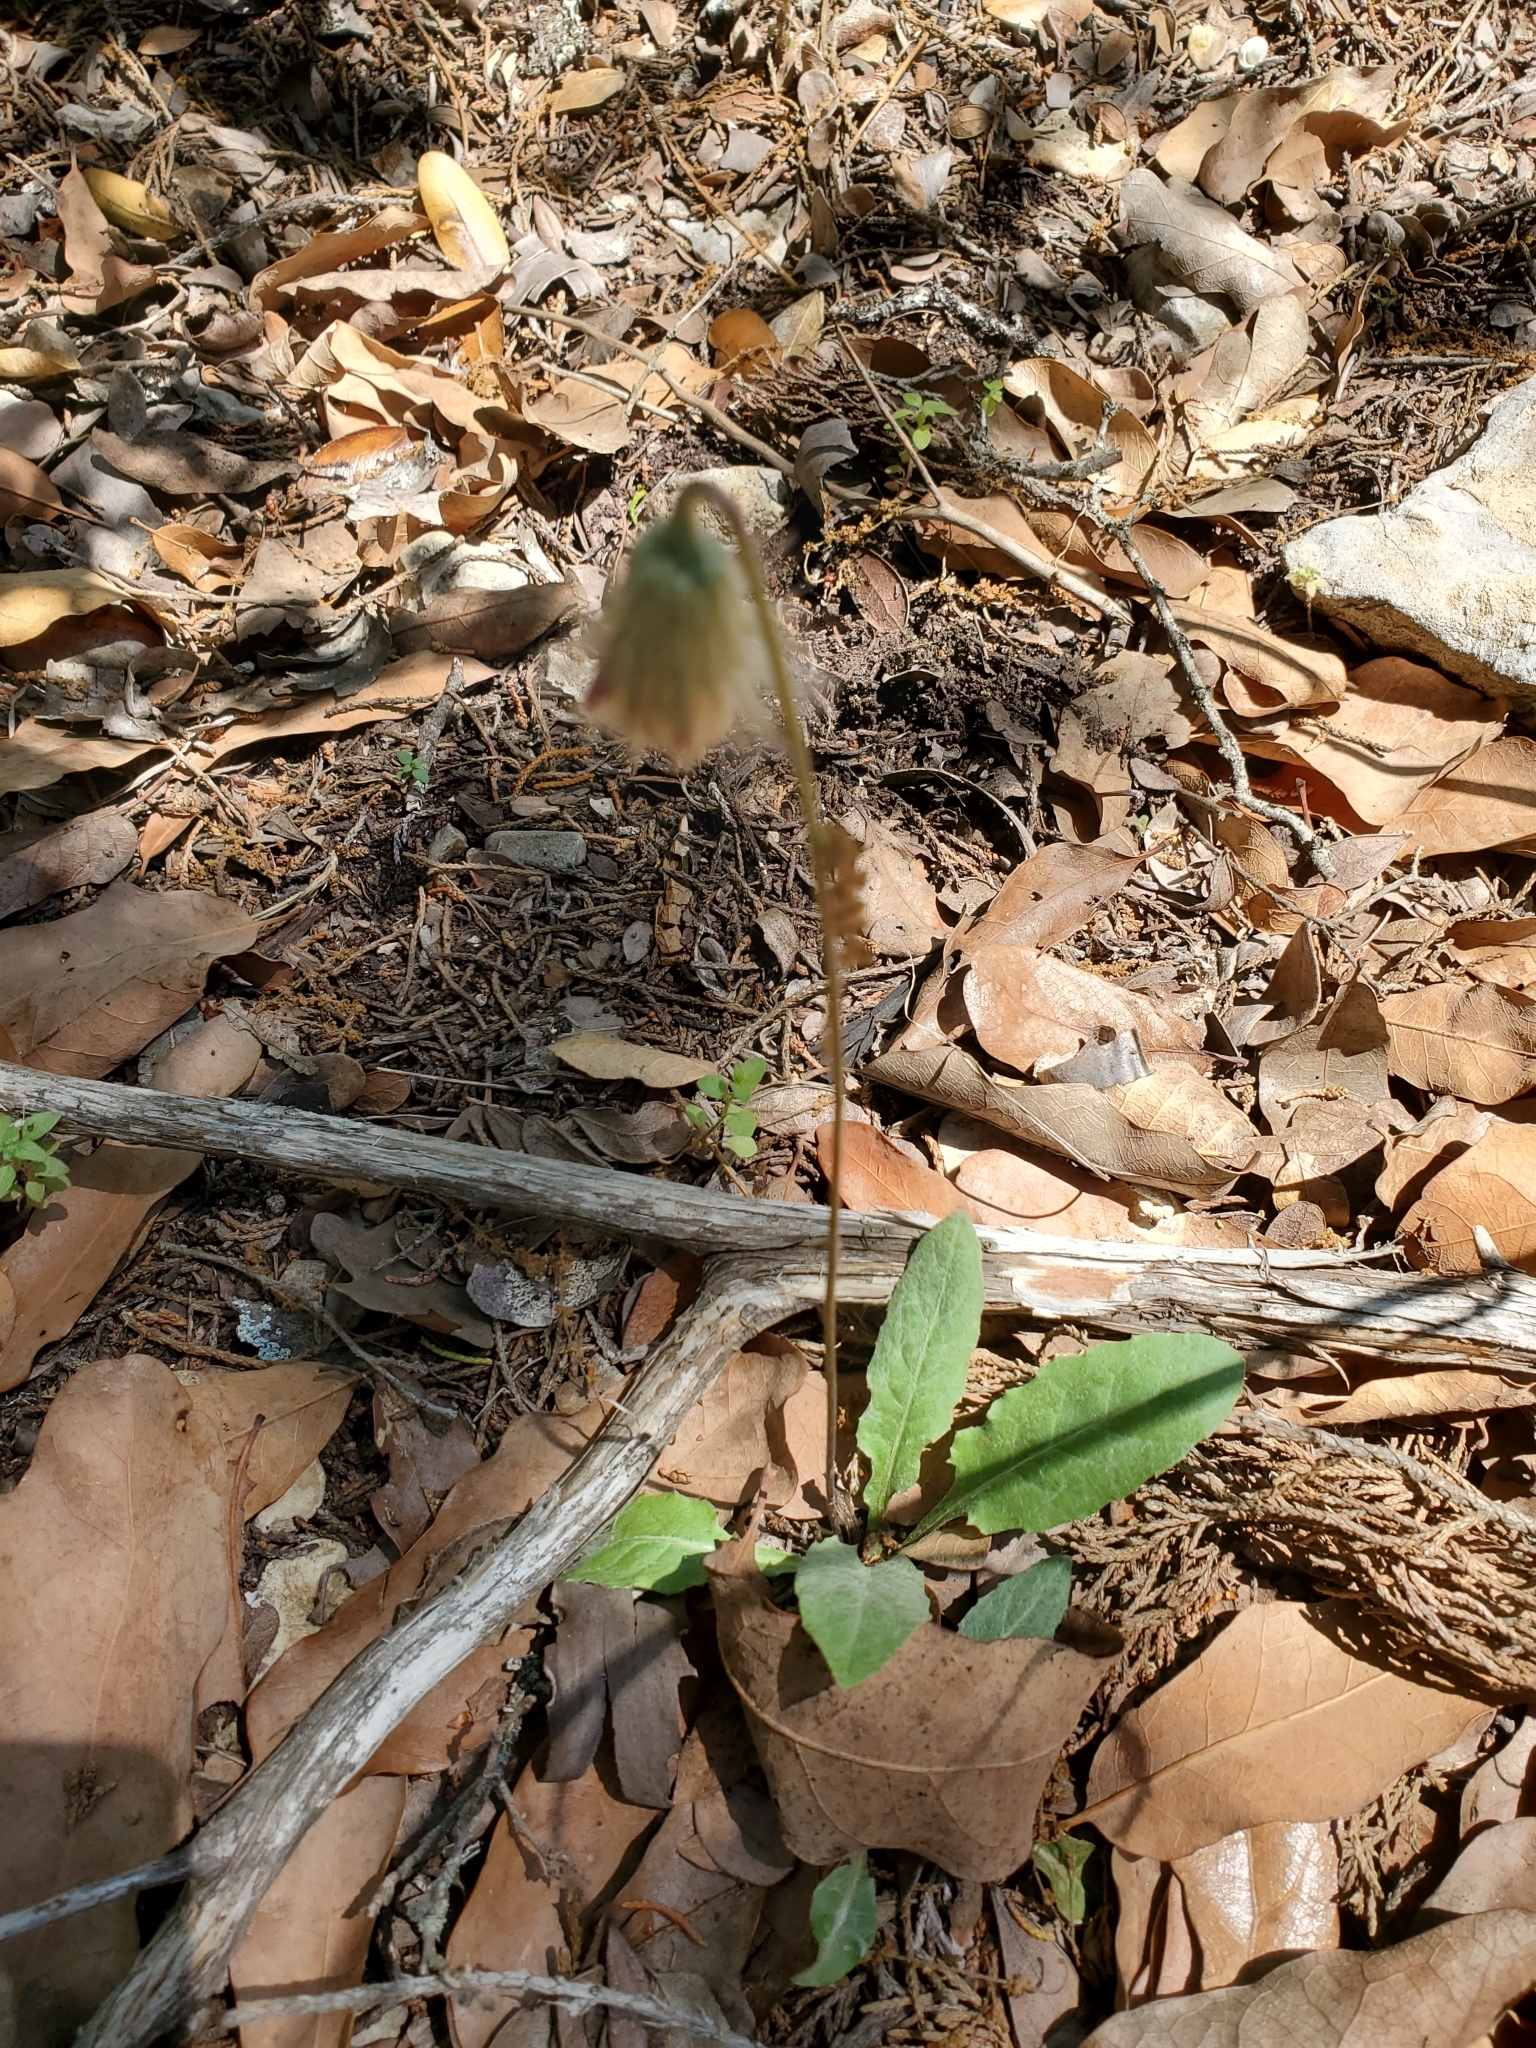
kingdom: Plantae
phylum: Tracheophyta
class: Magnoliopsida
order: Asterales
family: Asteraceae
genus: Chaptalia
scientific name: Chaptalia texana
